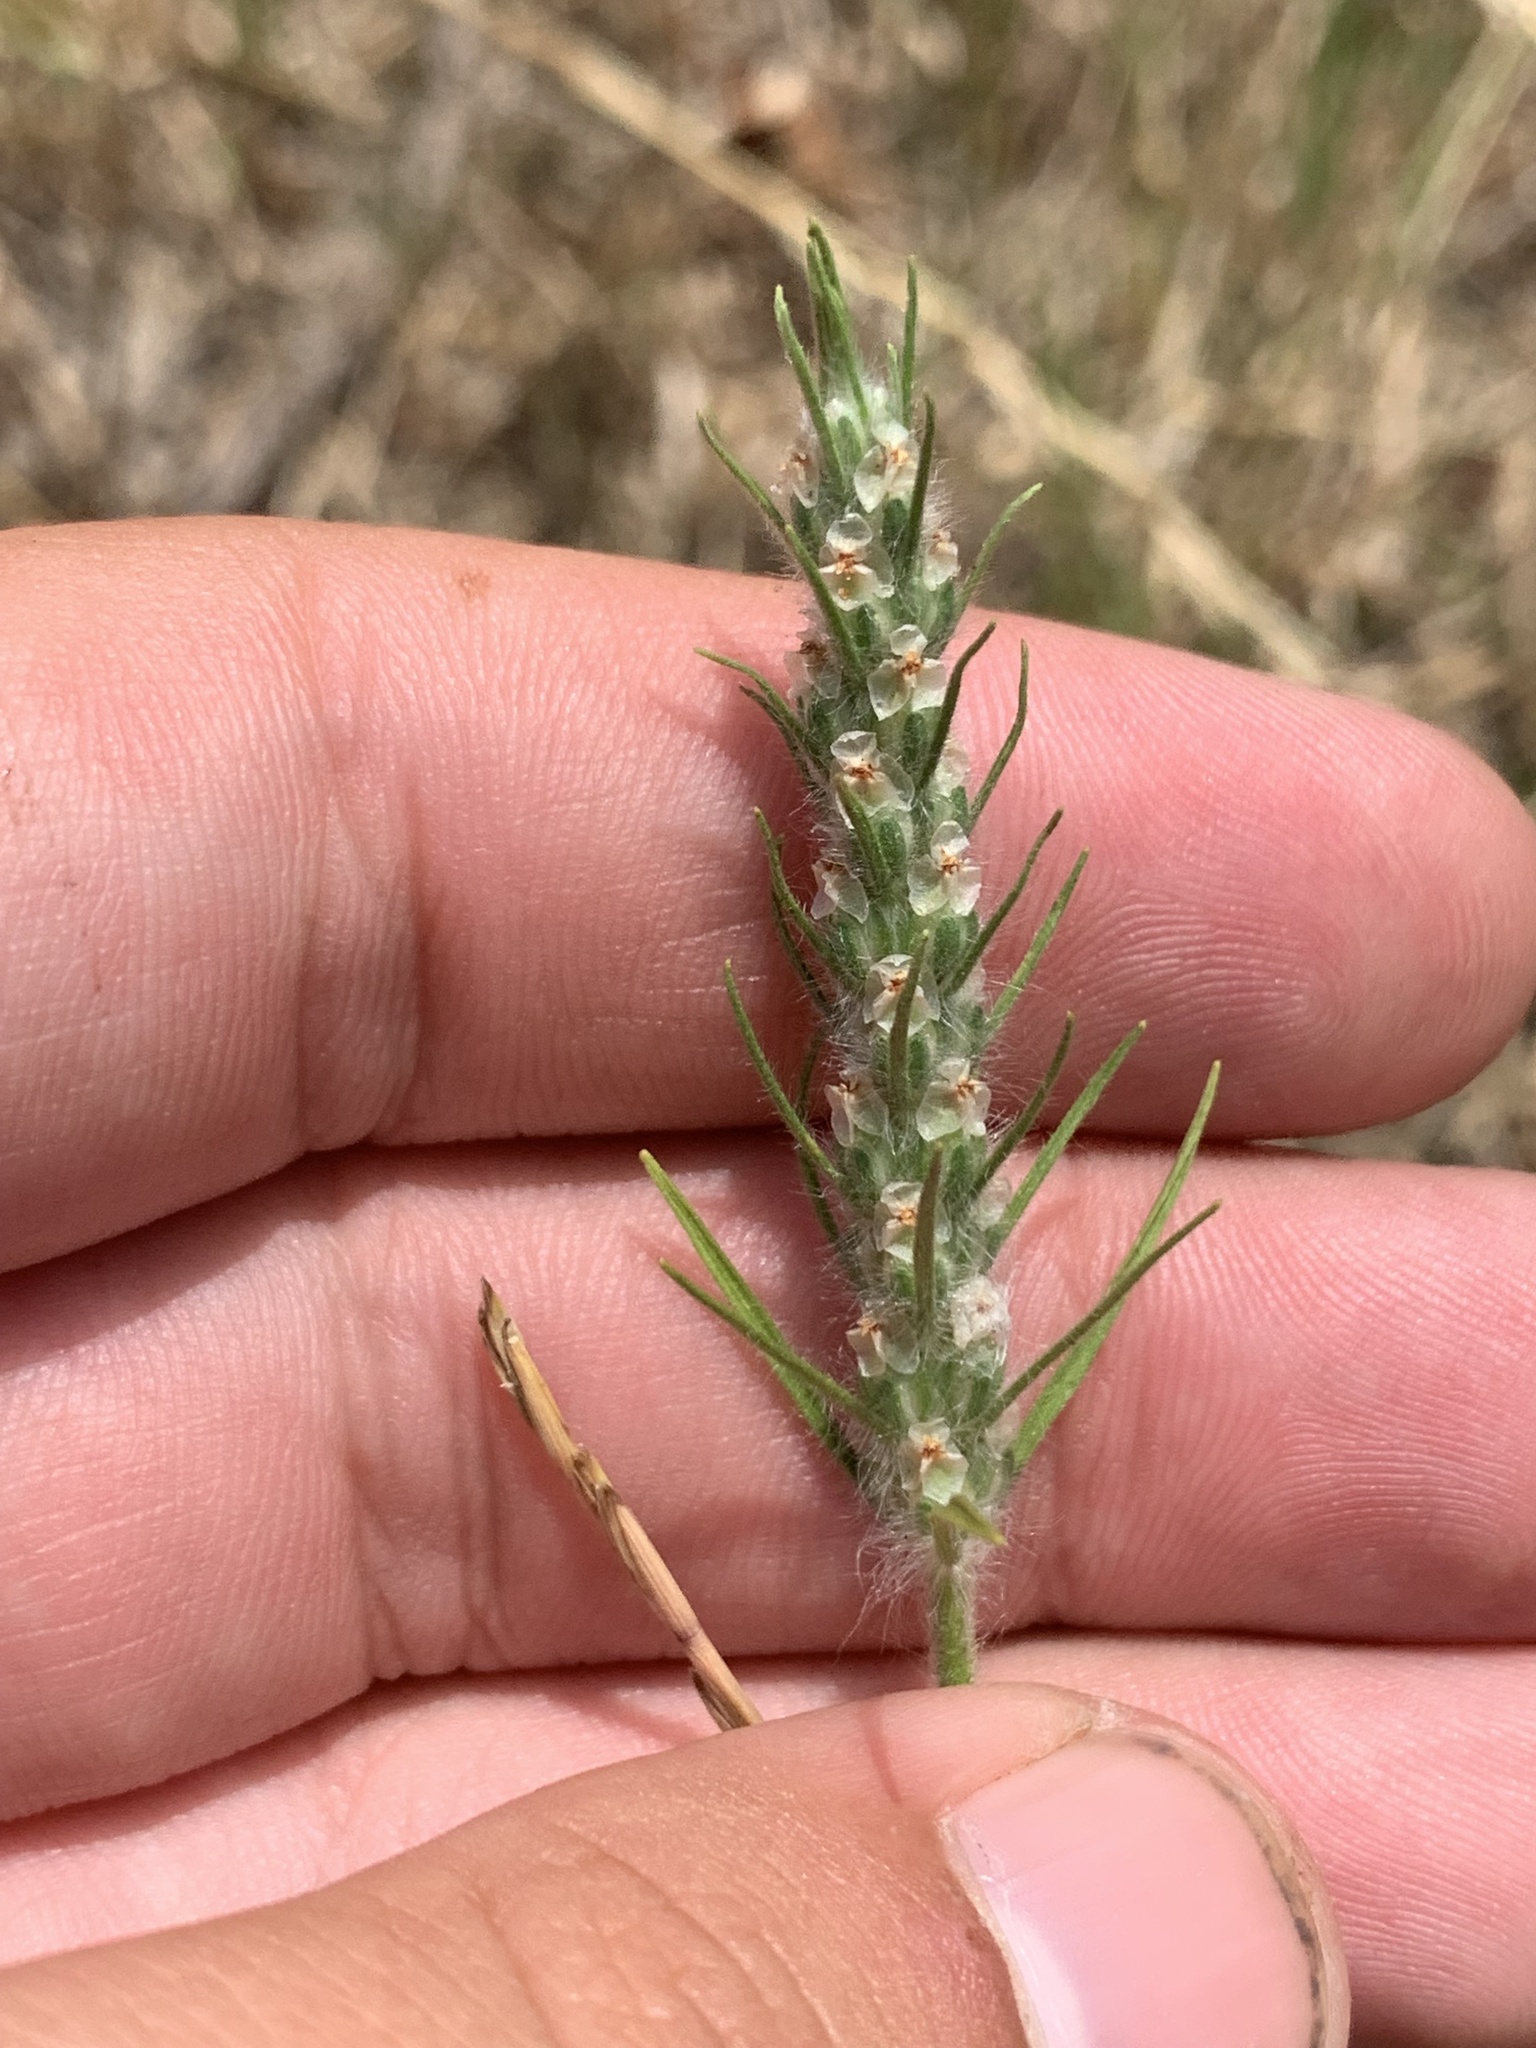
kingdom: Plantae
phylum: Tracheophyta
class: Magnoliopsida
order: Lamiales
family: Plantaginaceae
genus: Plantago
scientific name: Plantago aristata
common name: Bracted plantain
